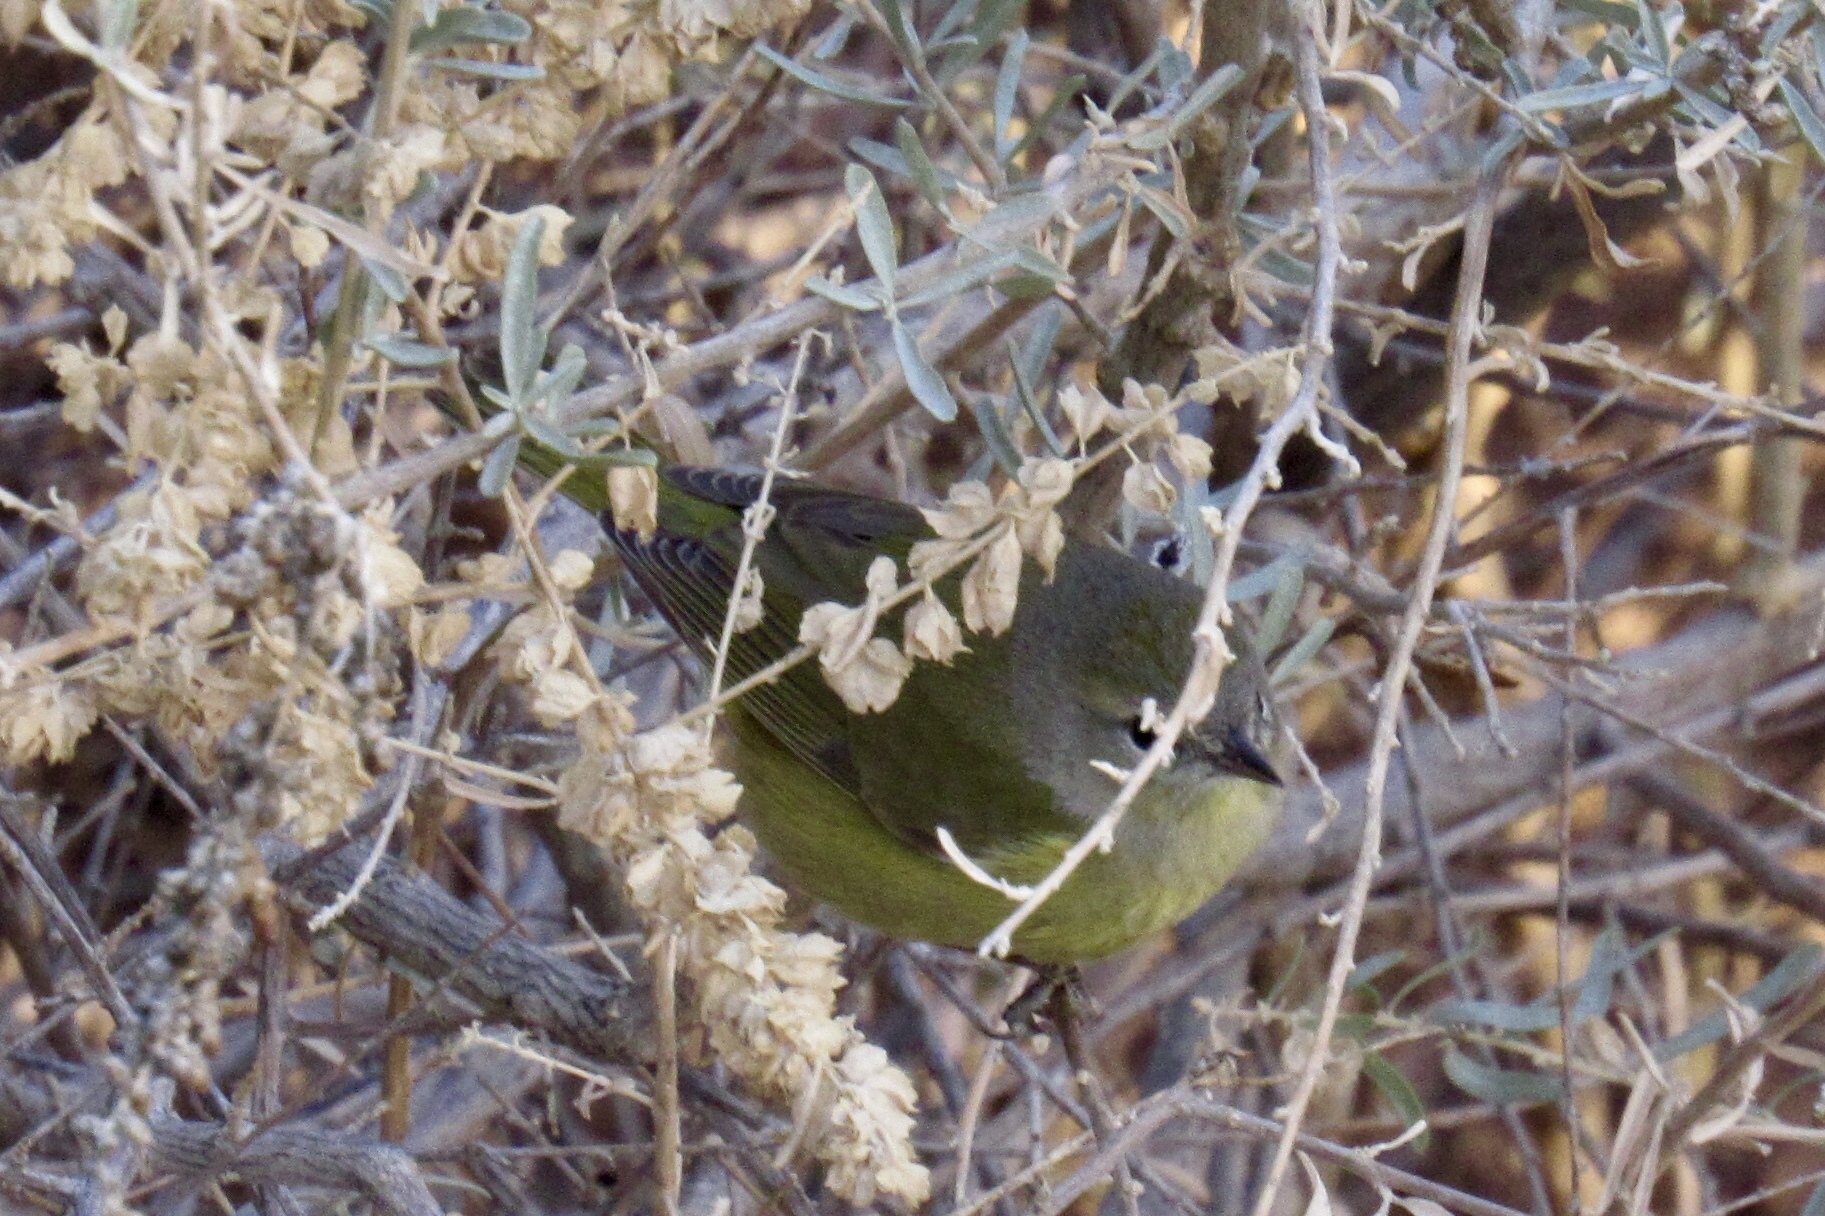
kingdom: Animalia
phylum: Chordata
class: Aves
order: Passeriformes
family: Parulidae
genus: Leiothlypis
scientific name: Leiothlypis celata
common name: Orange-crowned warbler
